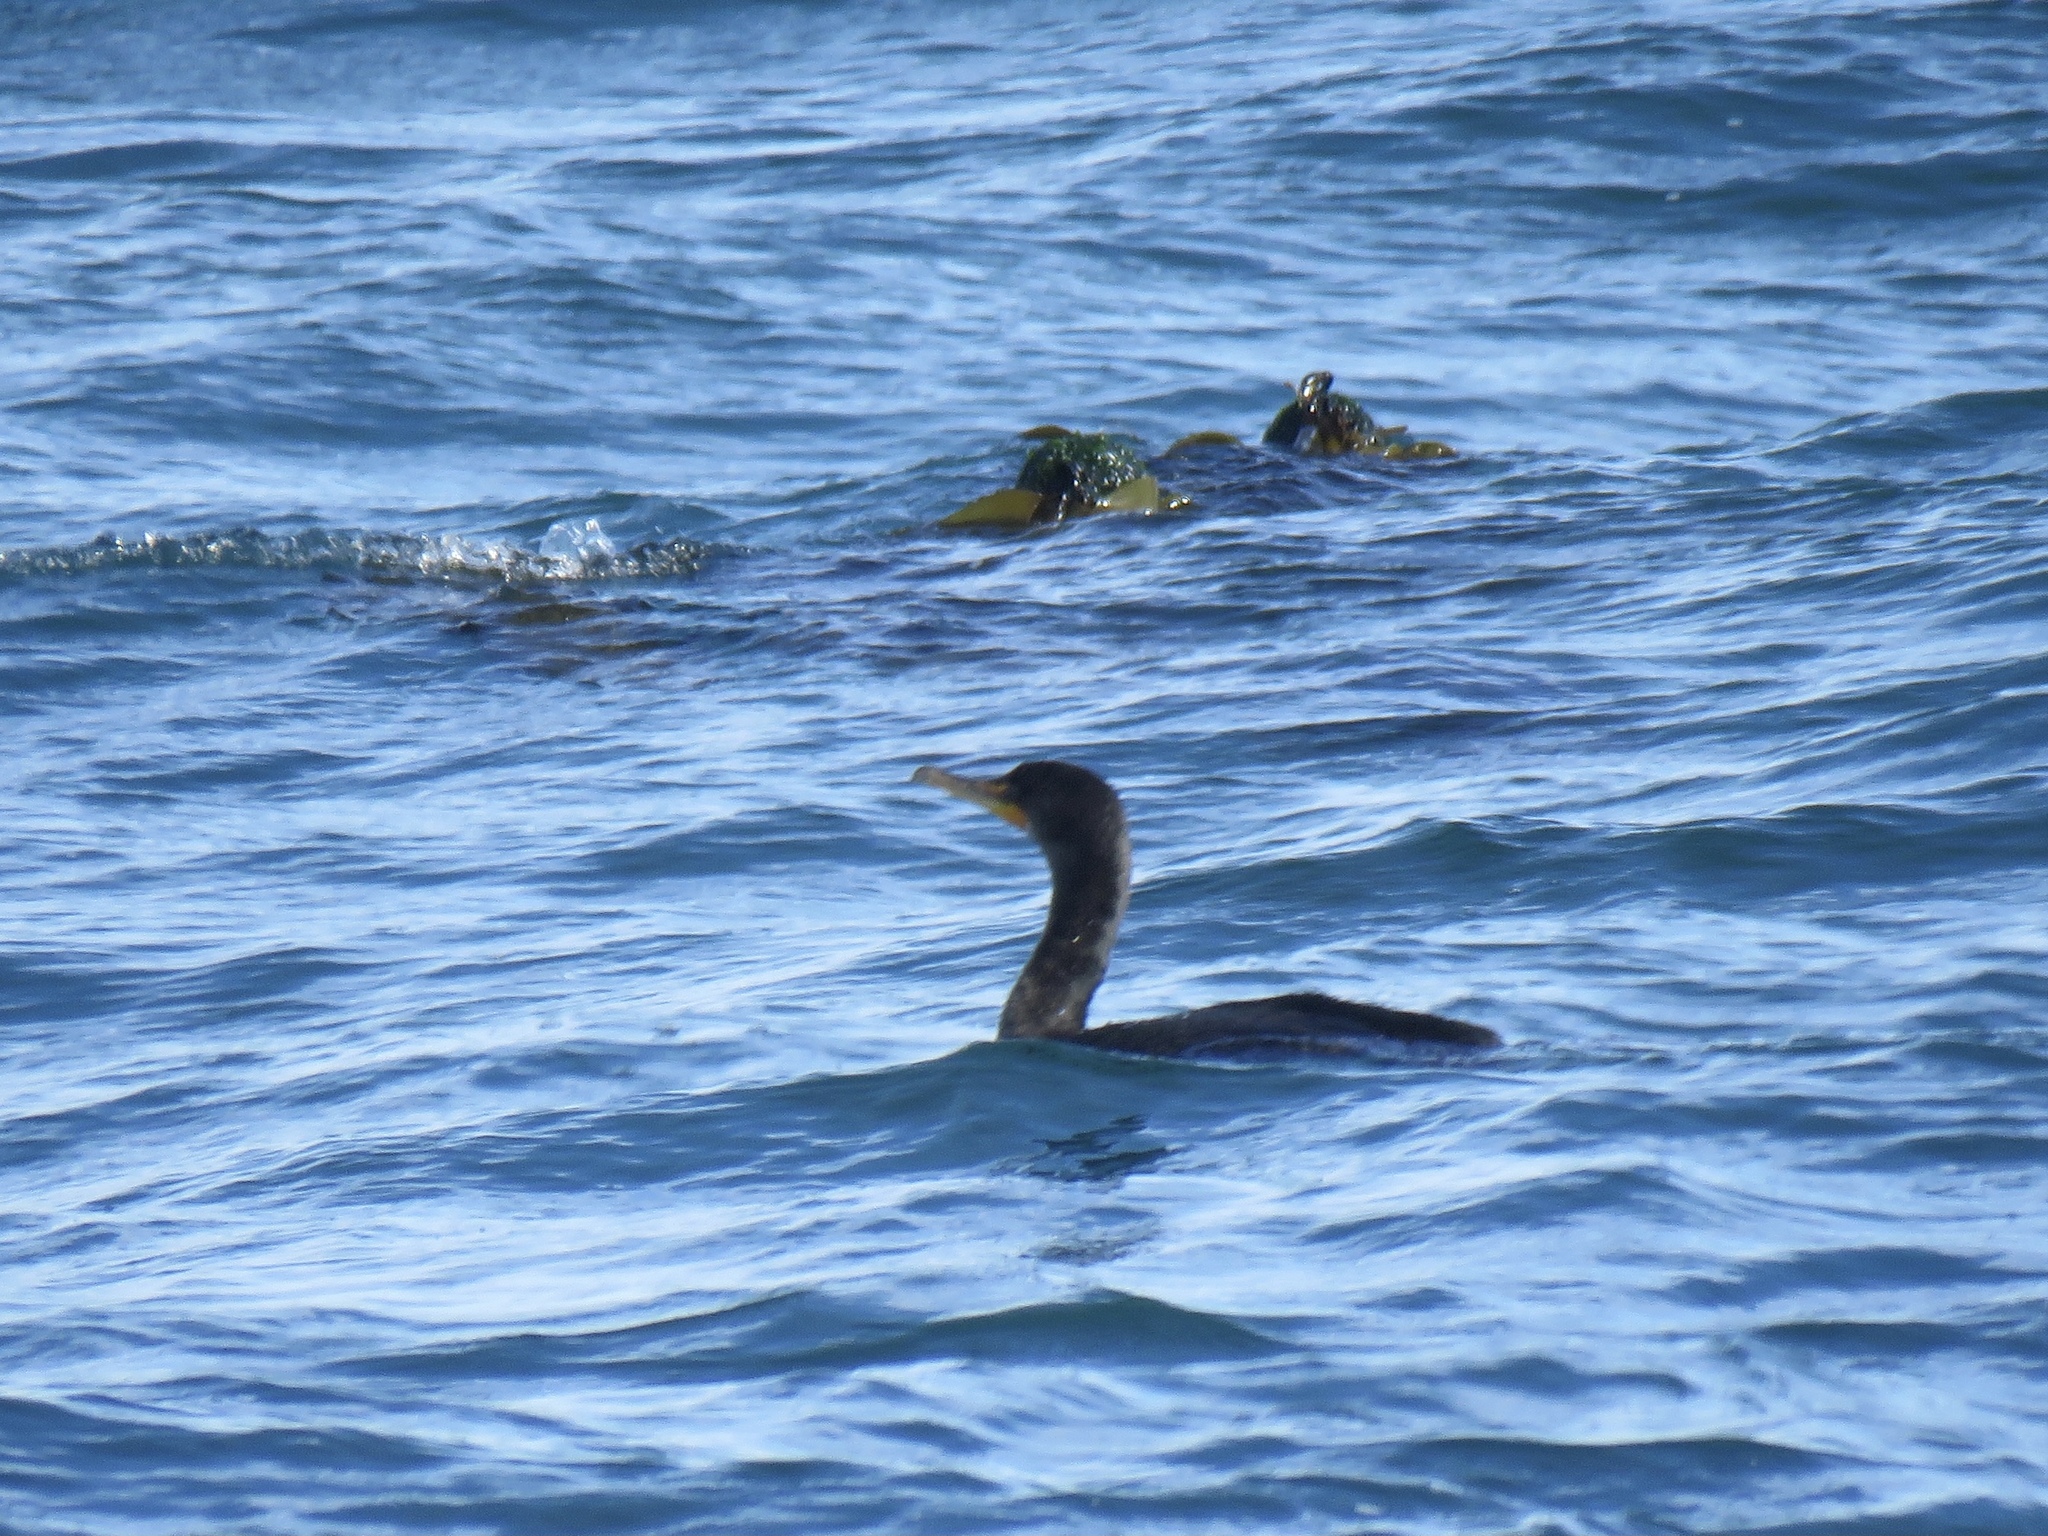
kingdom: Animalia
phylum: Chordata
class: Aves
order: Suliformes
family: Phalacrocoracidae
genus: Phalacrocorax
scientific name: Phalacrocorax auritus
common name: Double-crested cormorant
